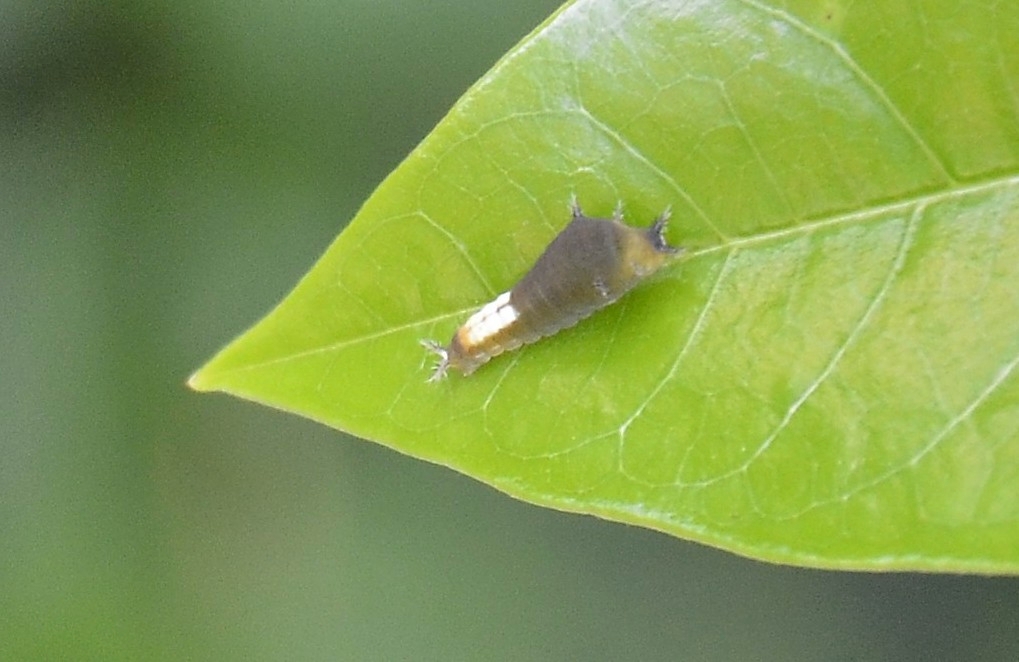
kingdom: Animalia
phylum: Arthropoda
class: Insecta
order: Lepidoptera
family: Papilionidae
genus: Graphium
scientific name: Graphium agamemnon
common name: Tailed jay
